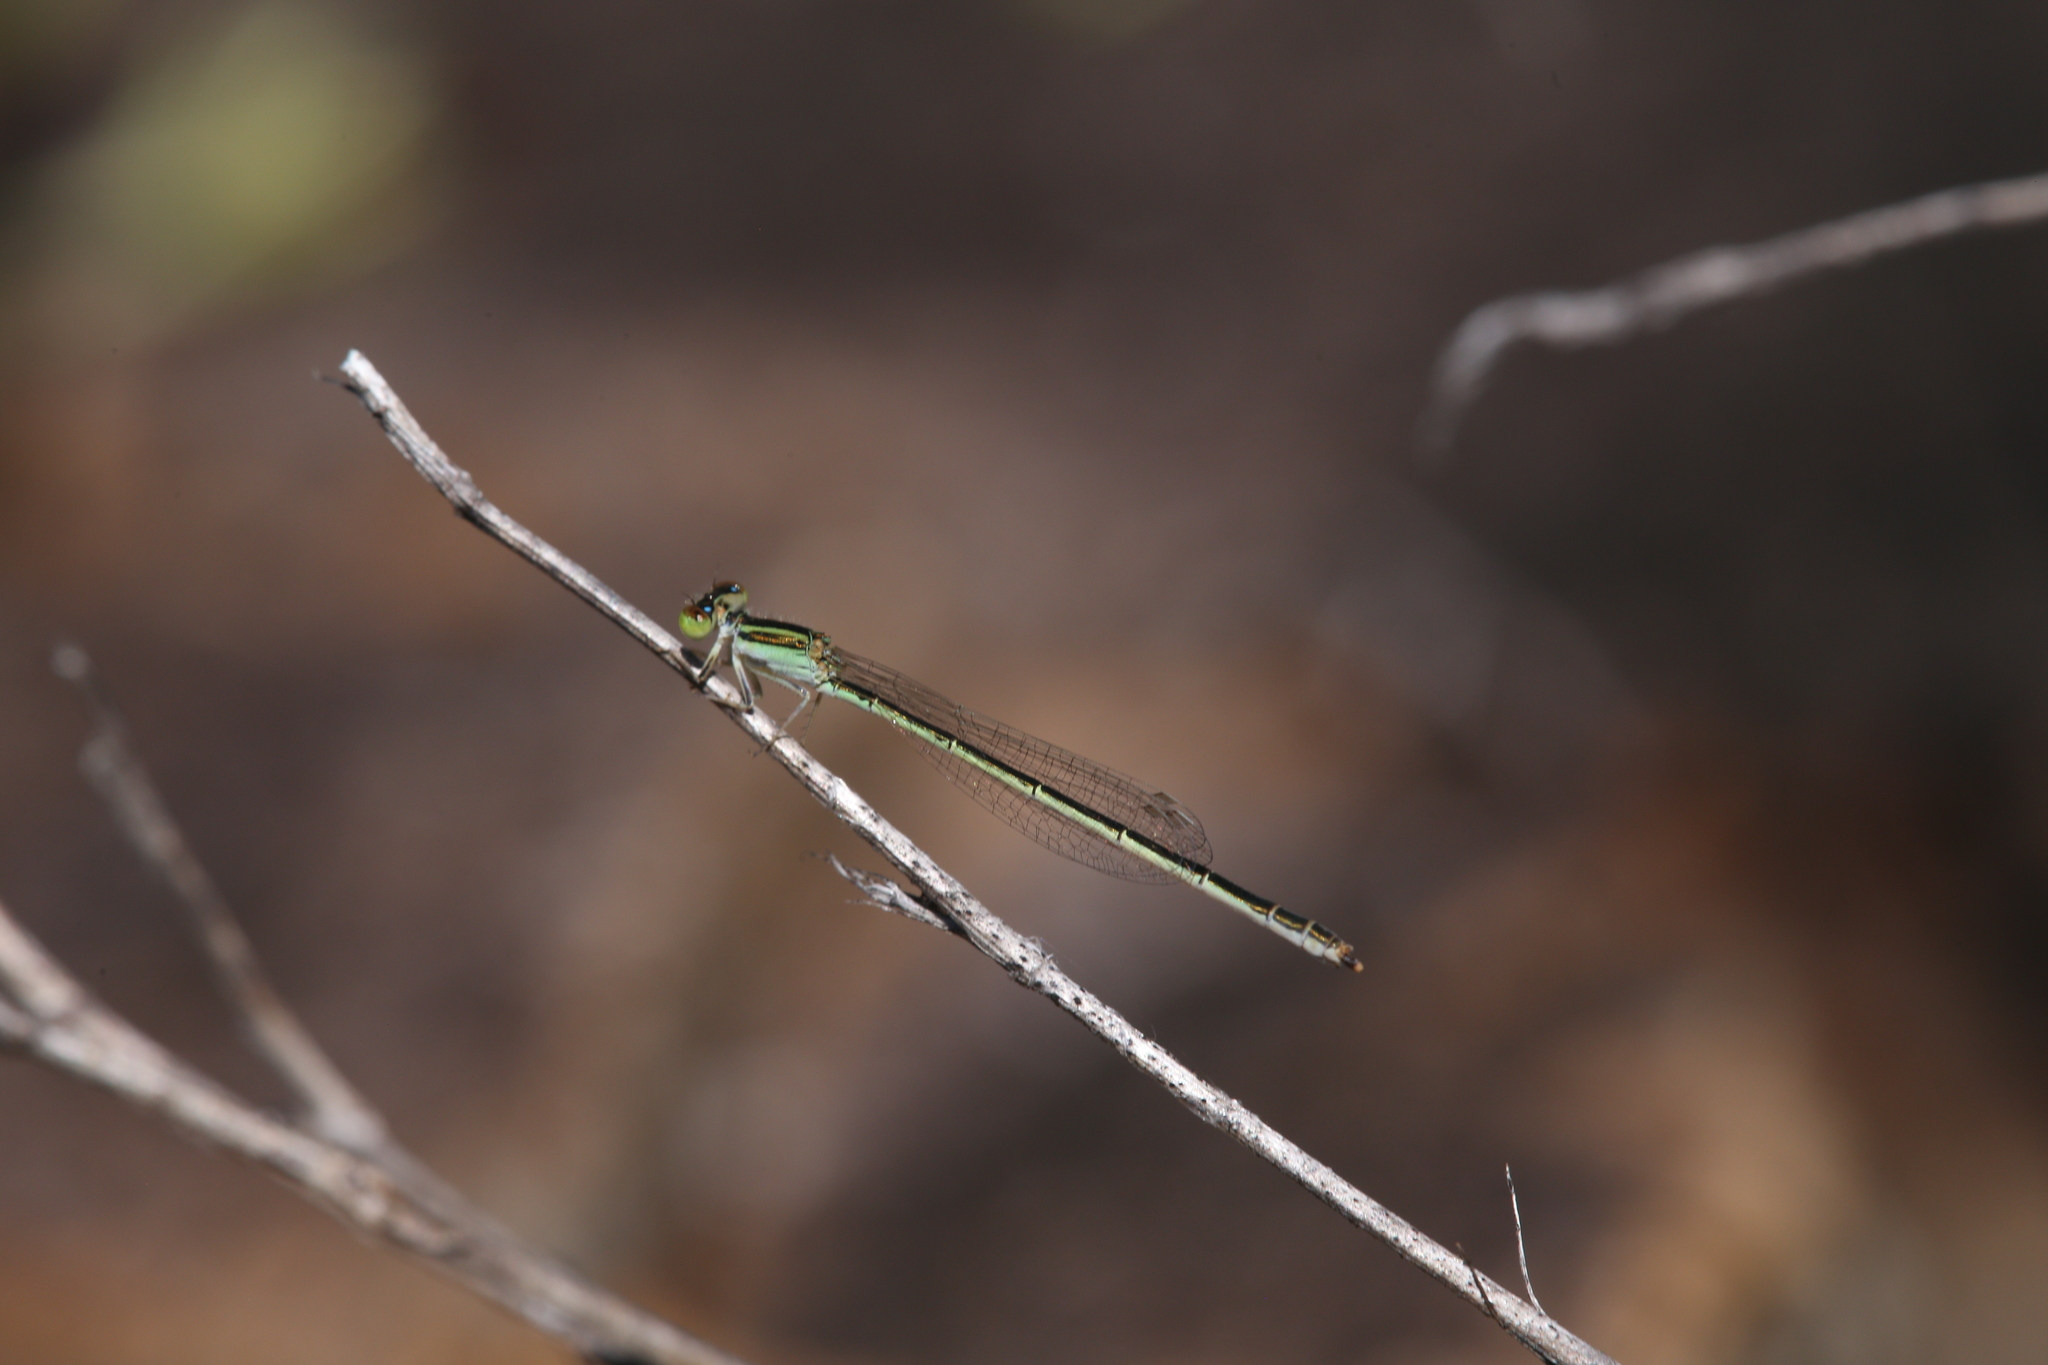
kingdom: Animalia
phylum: Arthropoda
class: Insecta
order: Odonata
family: Coenagrionidae
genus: Ischnura
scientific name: Ischnura aurora
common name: Gossamer damselfly
